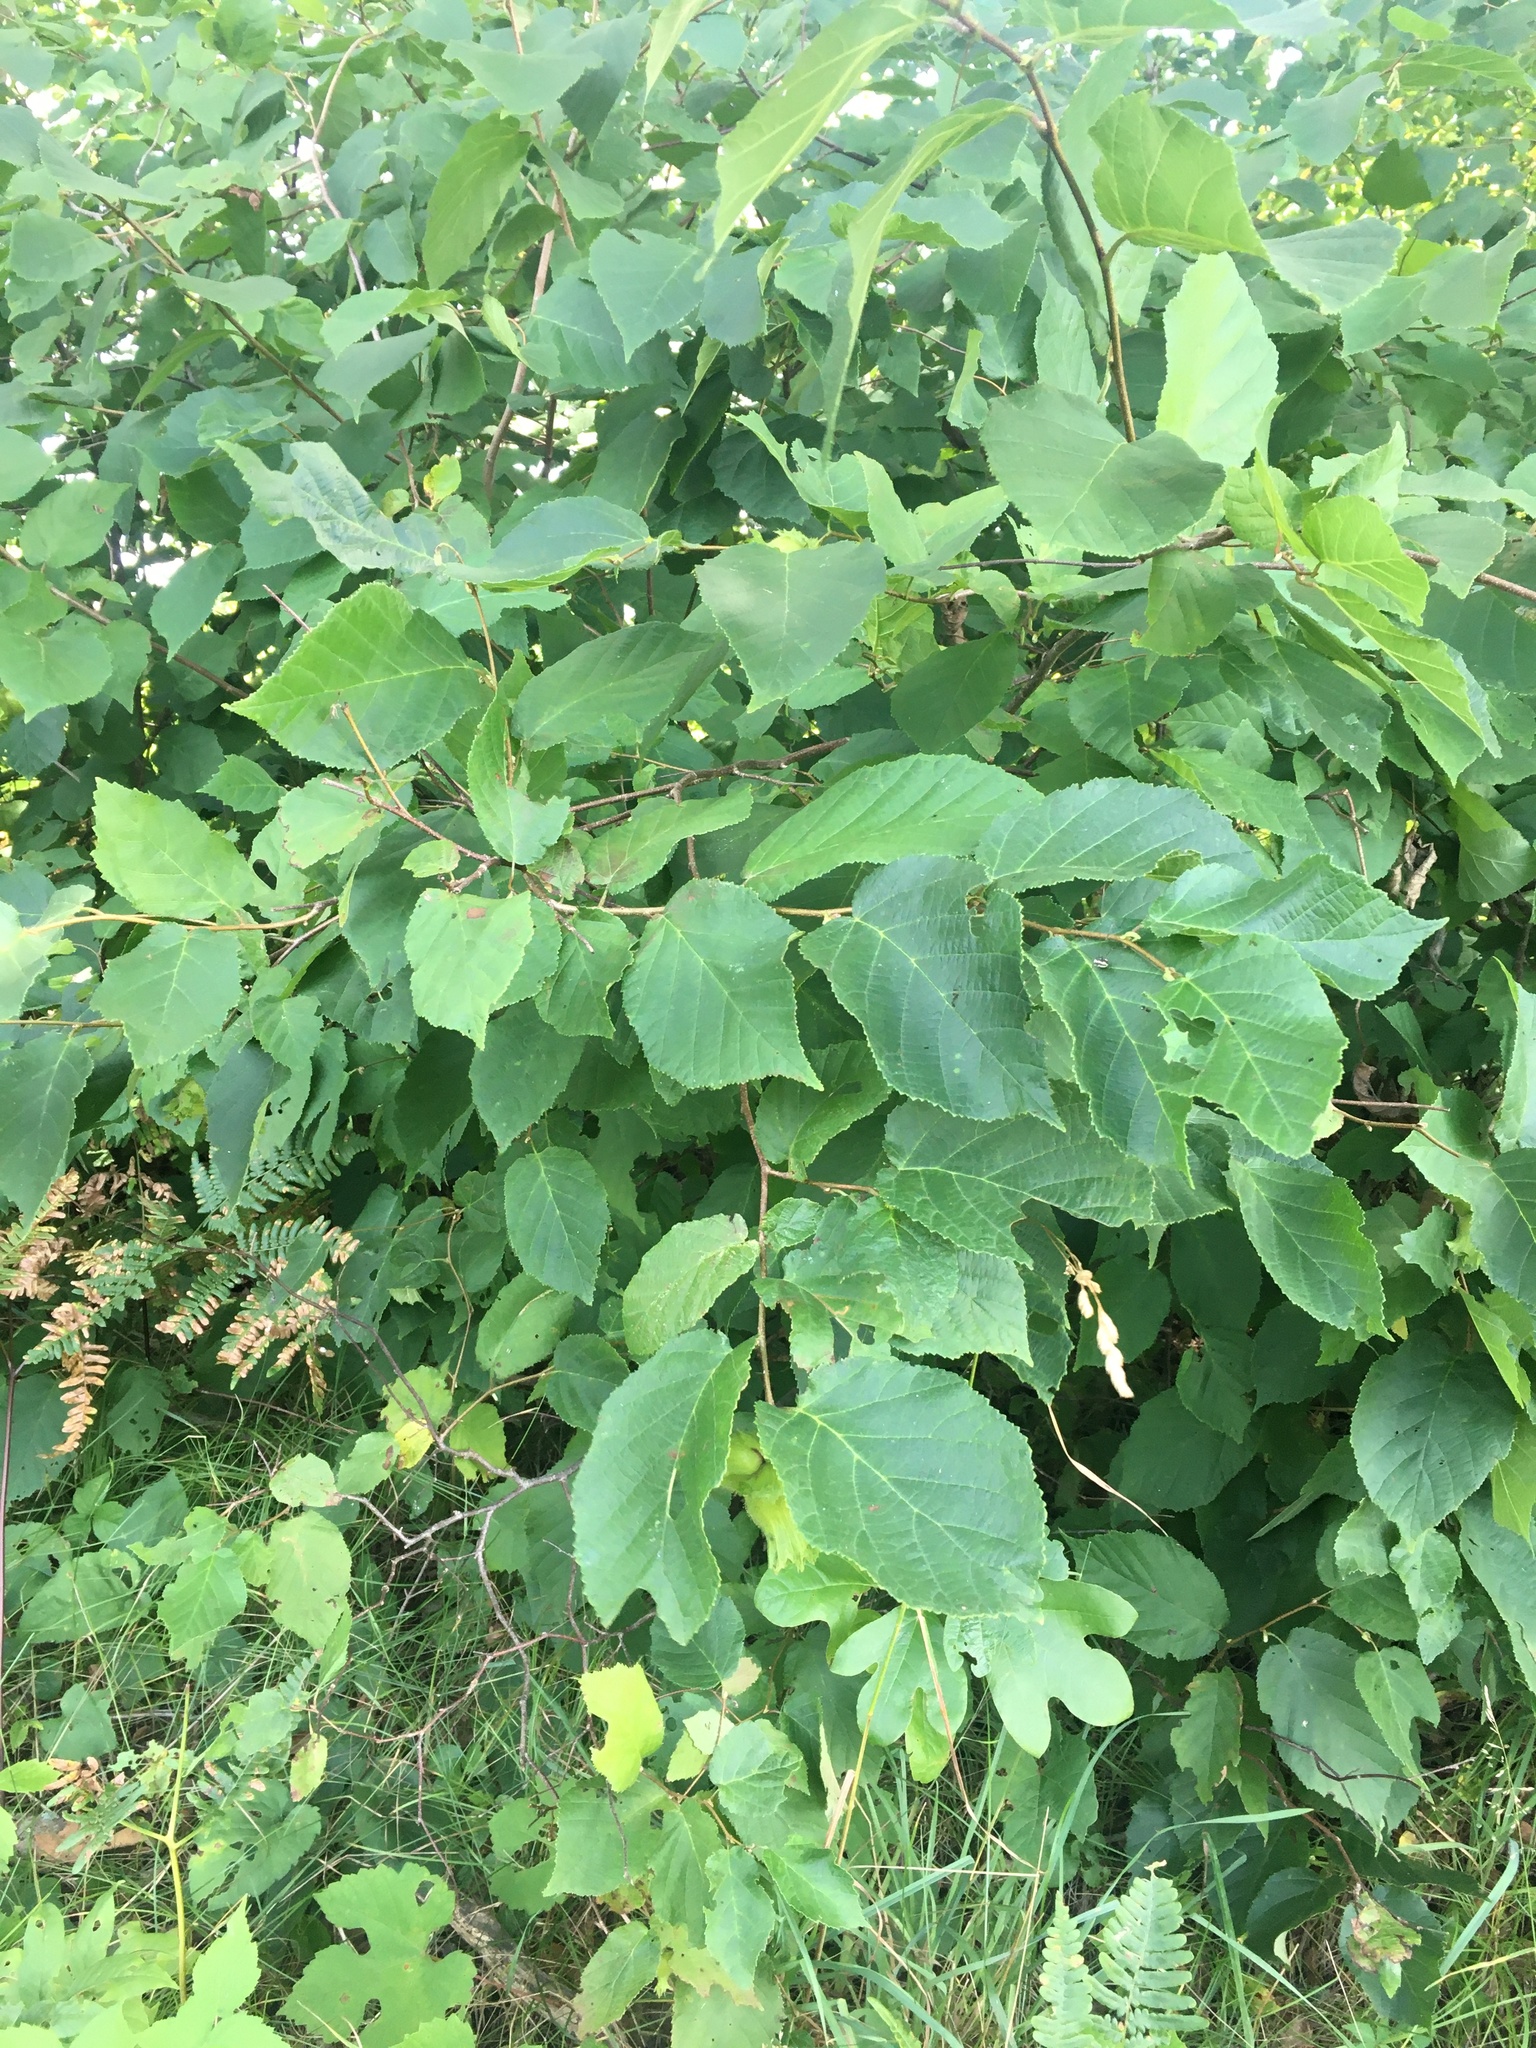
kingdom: Plantae
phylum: Tracheophyta
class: Magnoliopsida
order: Fagales
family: Betulaceae
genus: Corylus
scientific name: Corylus americana
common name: American hazel
